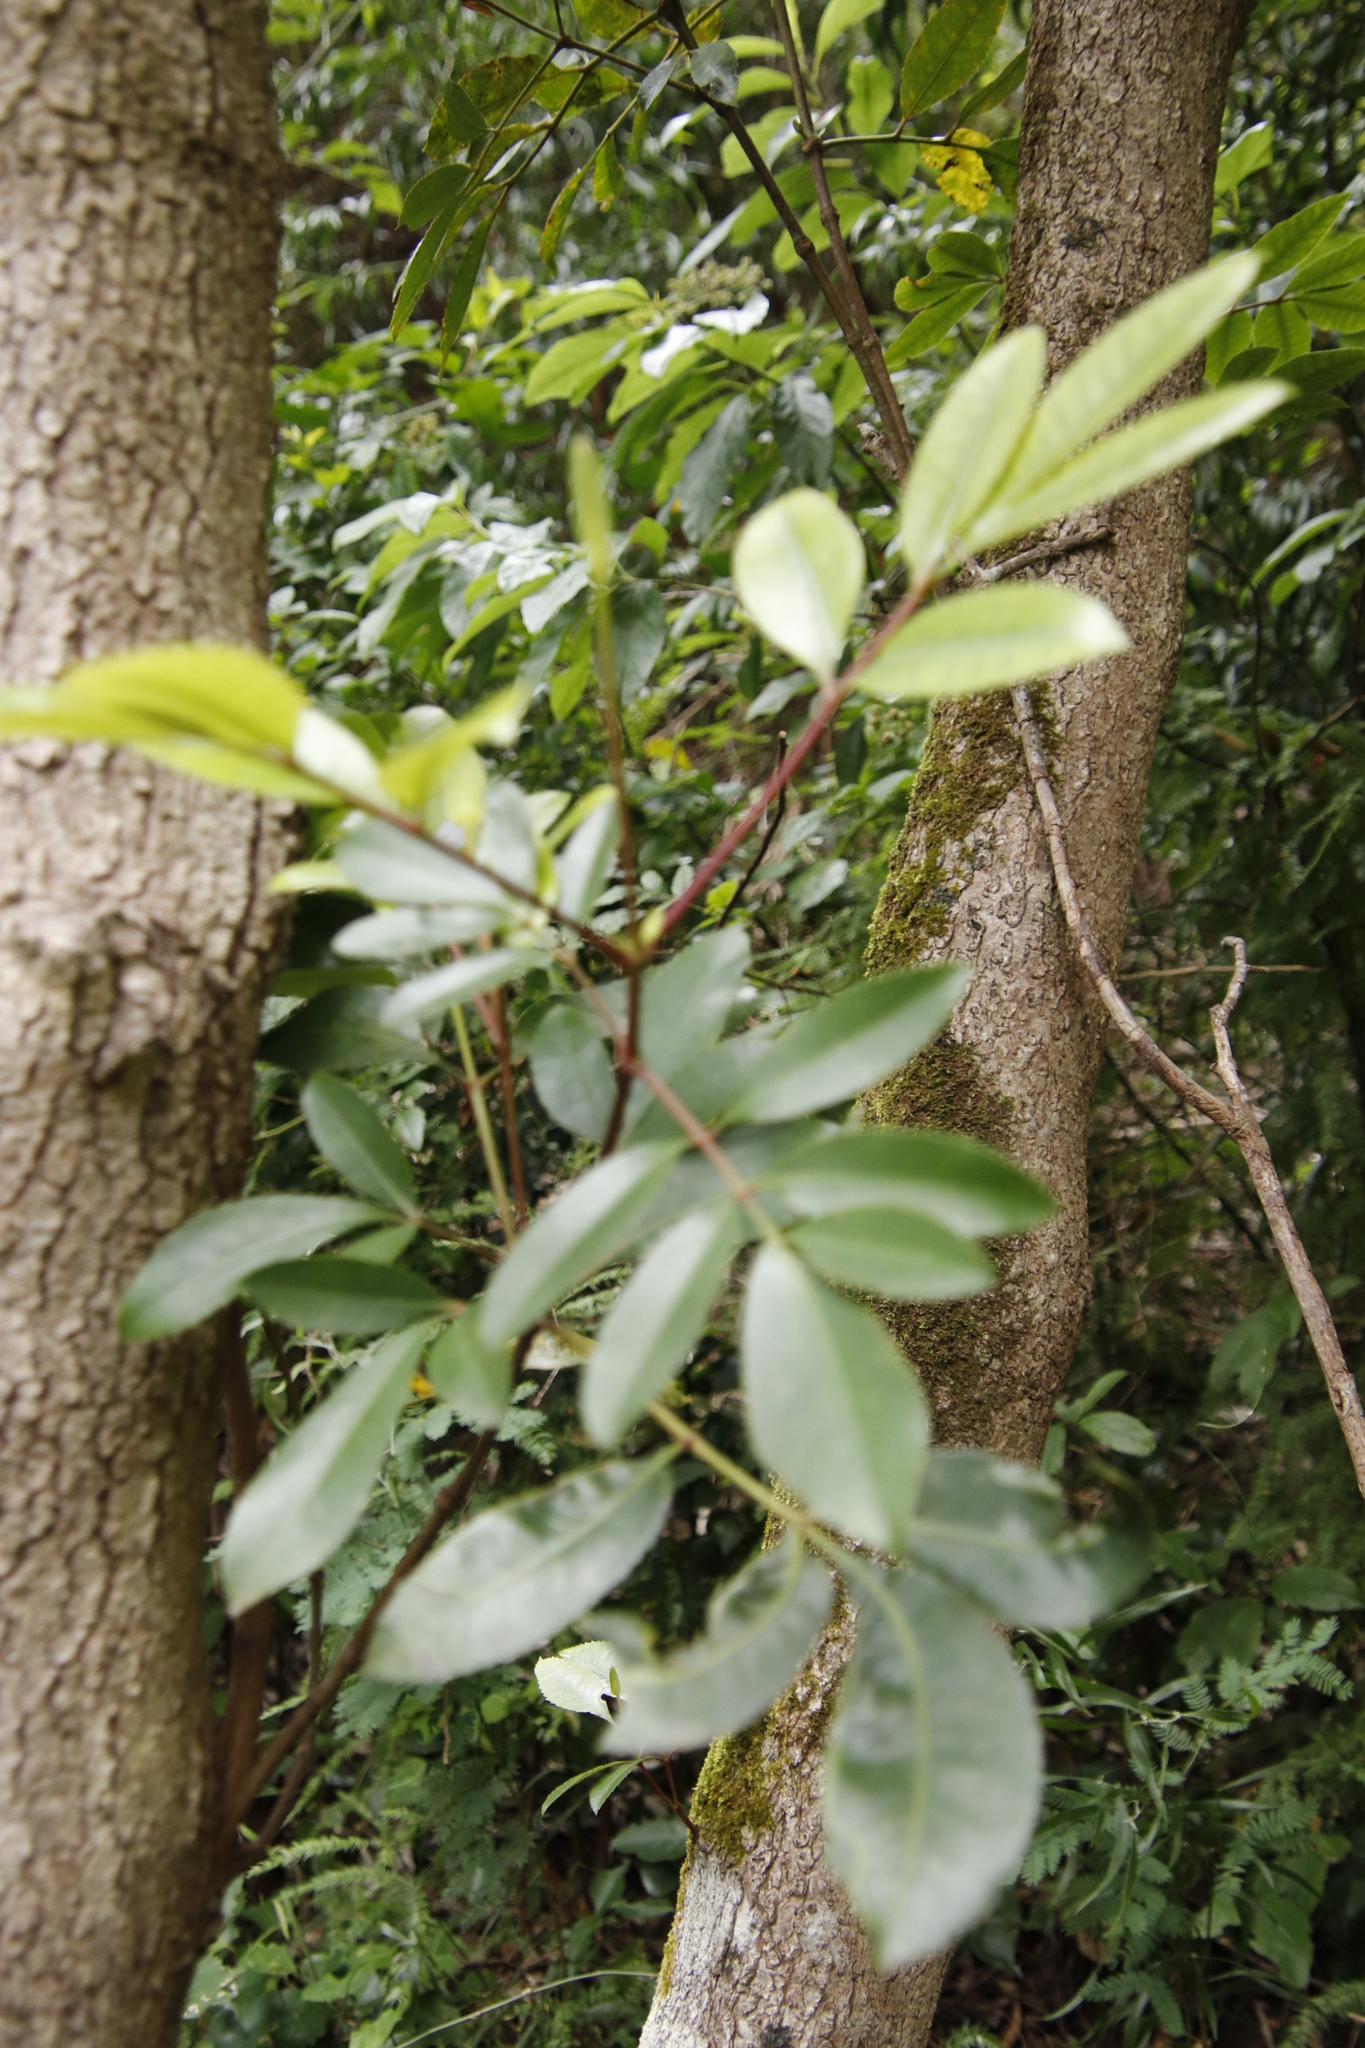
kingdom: Plantae
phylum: Tracheophyta
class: Magnoliopsida
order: Oxalidales
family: Cunoniaceae
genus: Cunonia
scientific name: Cunonia capensis
